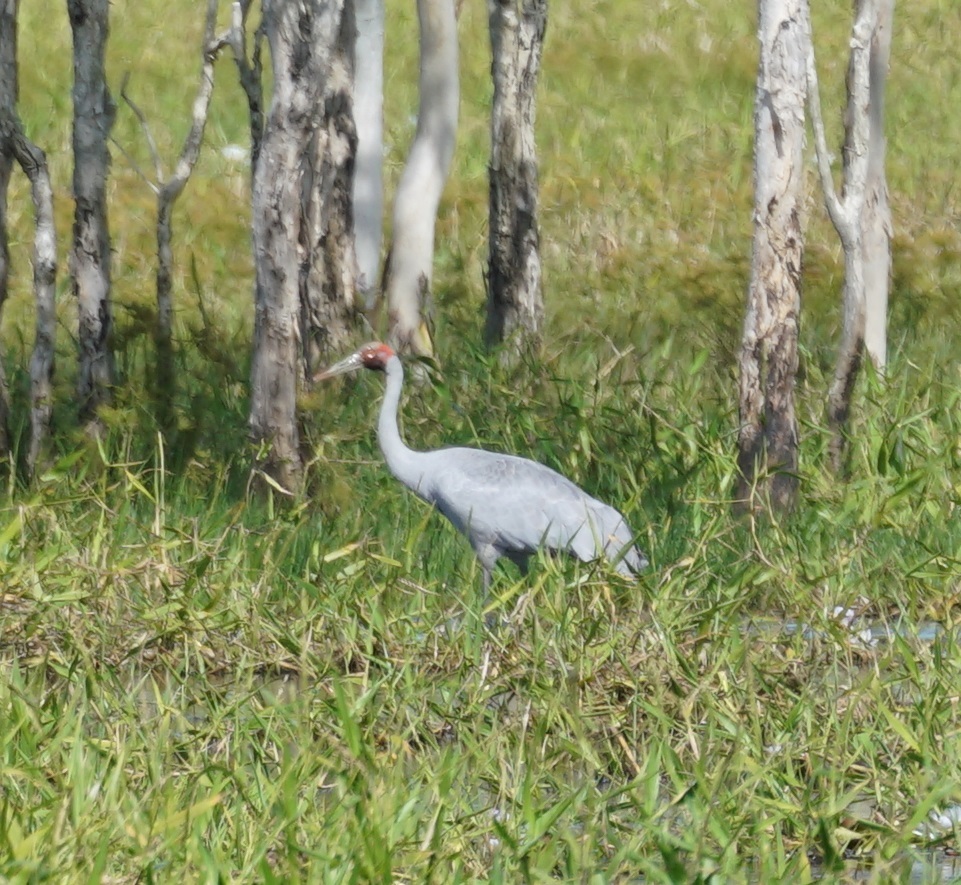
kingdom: Animalia
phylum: Chordata
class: Aves
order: Gruiformes
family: Gruidae
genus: Grus
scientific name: Grus rubicunda
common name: Brolga
